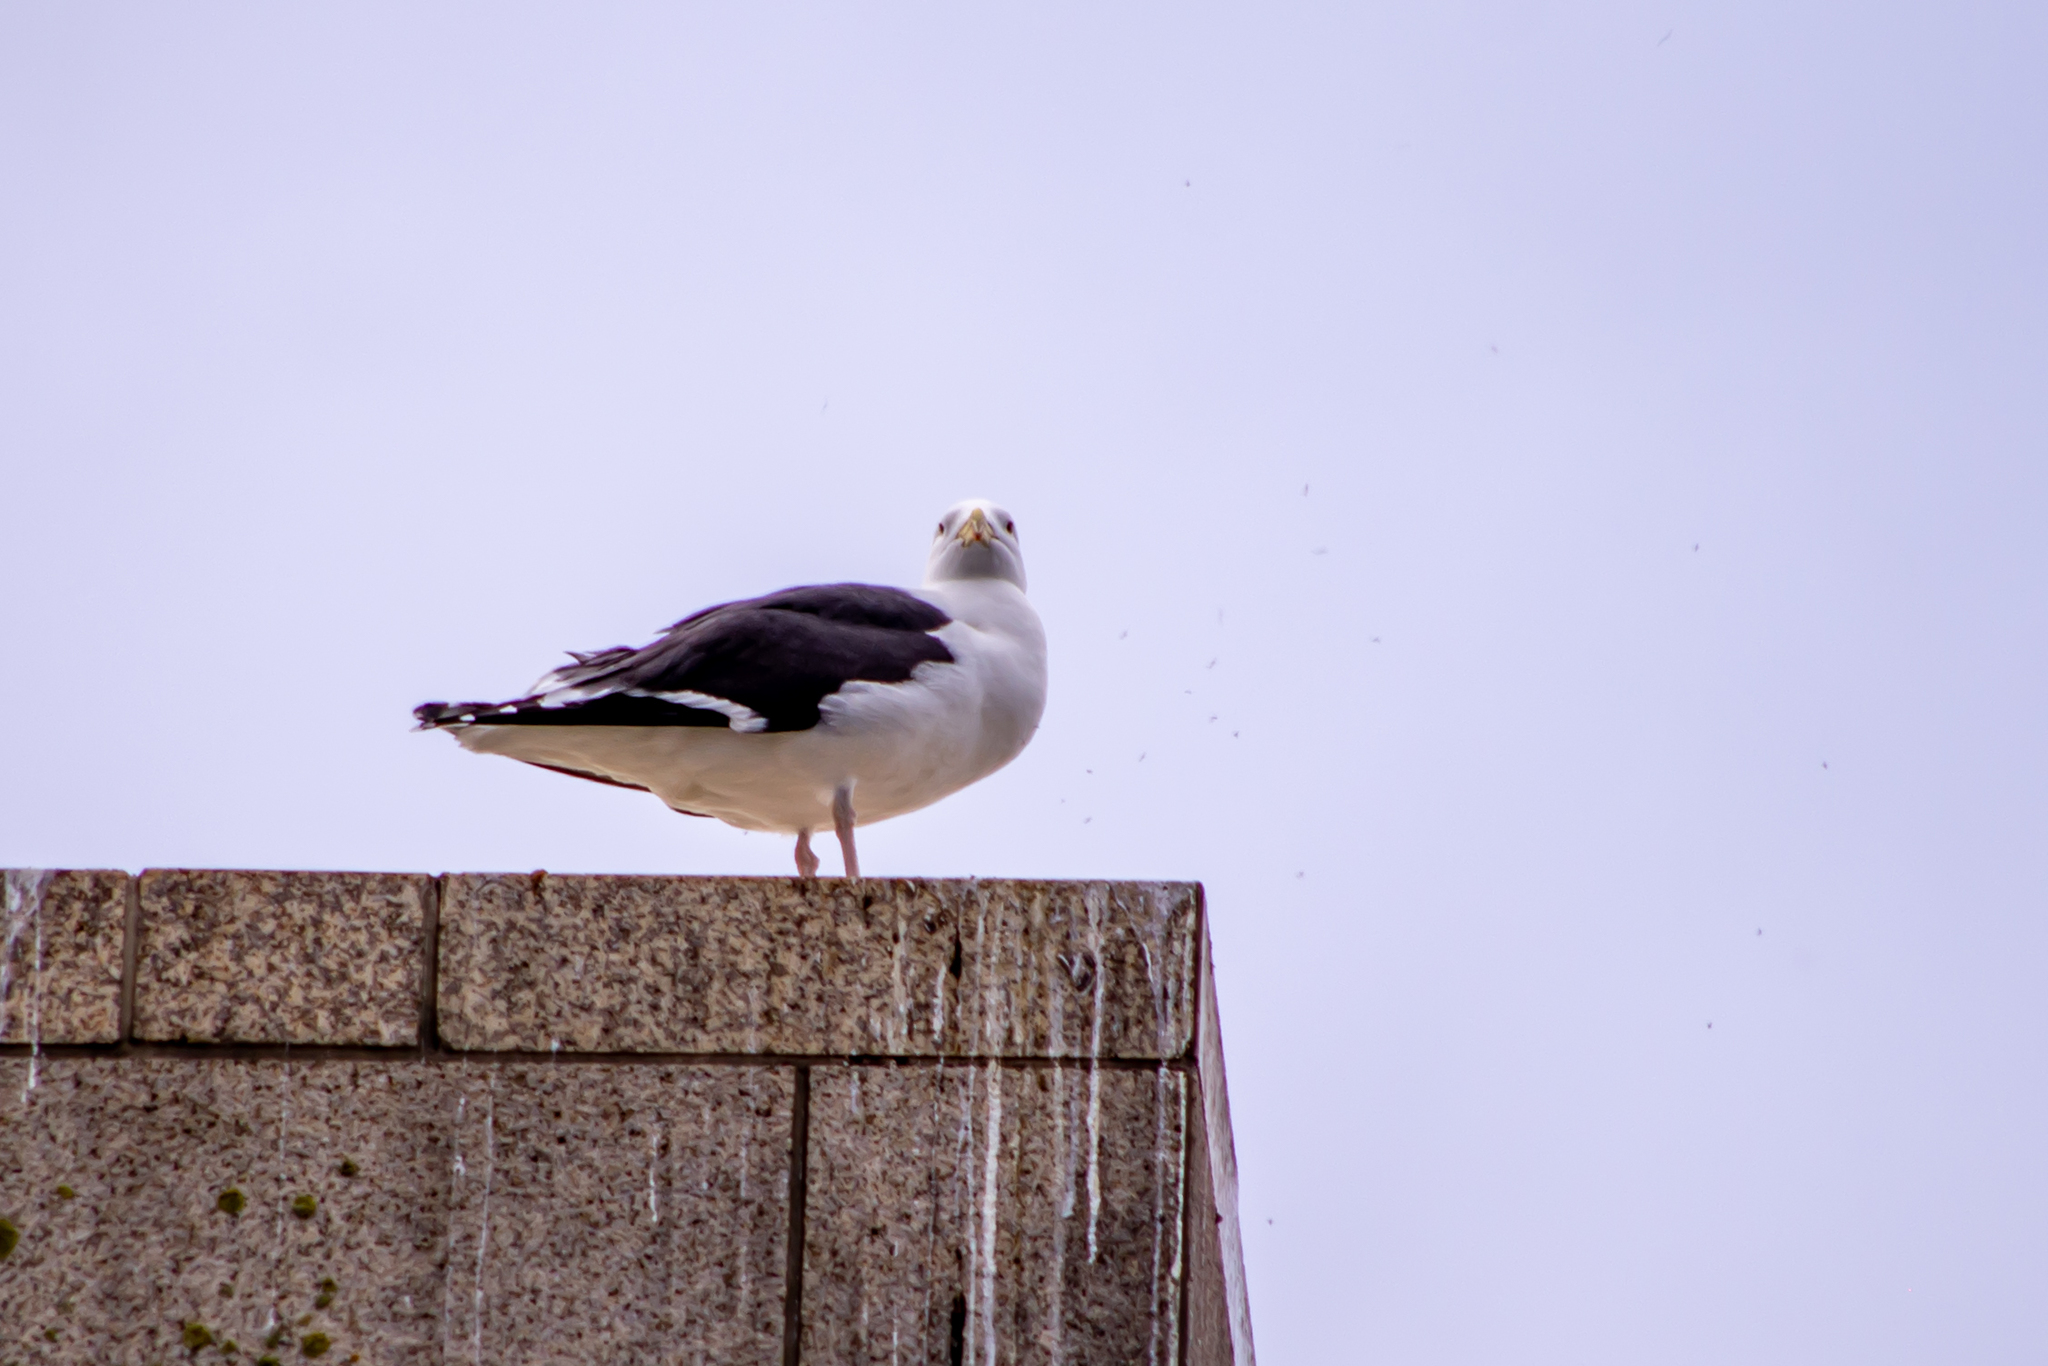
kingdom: Animalia
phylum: Chordata
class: Aves
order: Charadriiformes
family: Laridae
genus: Larus
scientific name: Larus marinus
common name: Great black-backed gull
